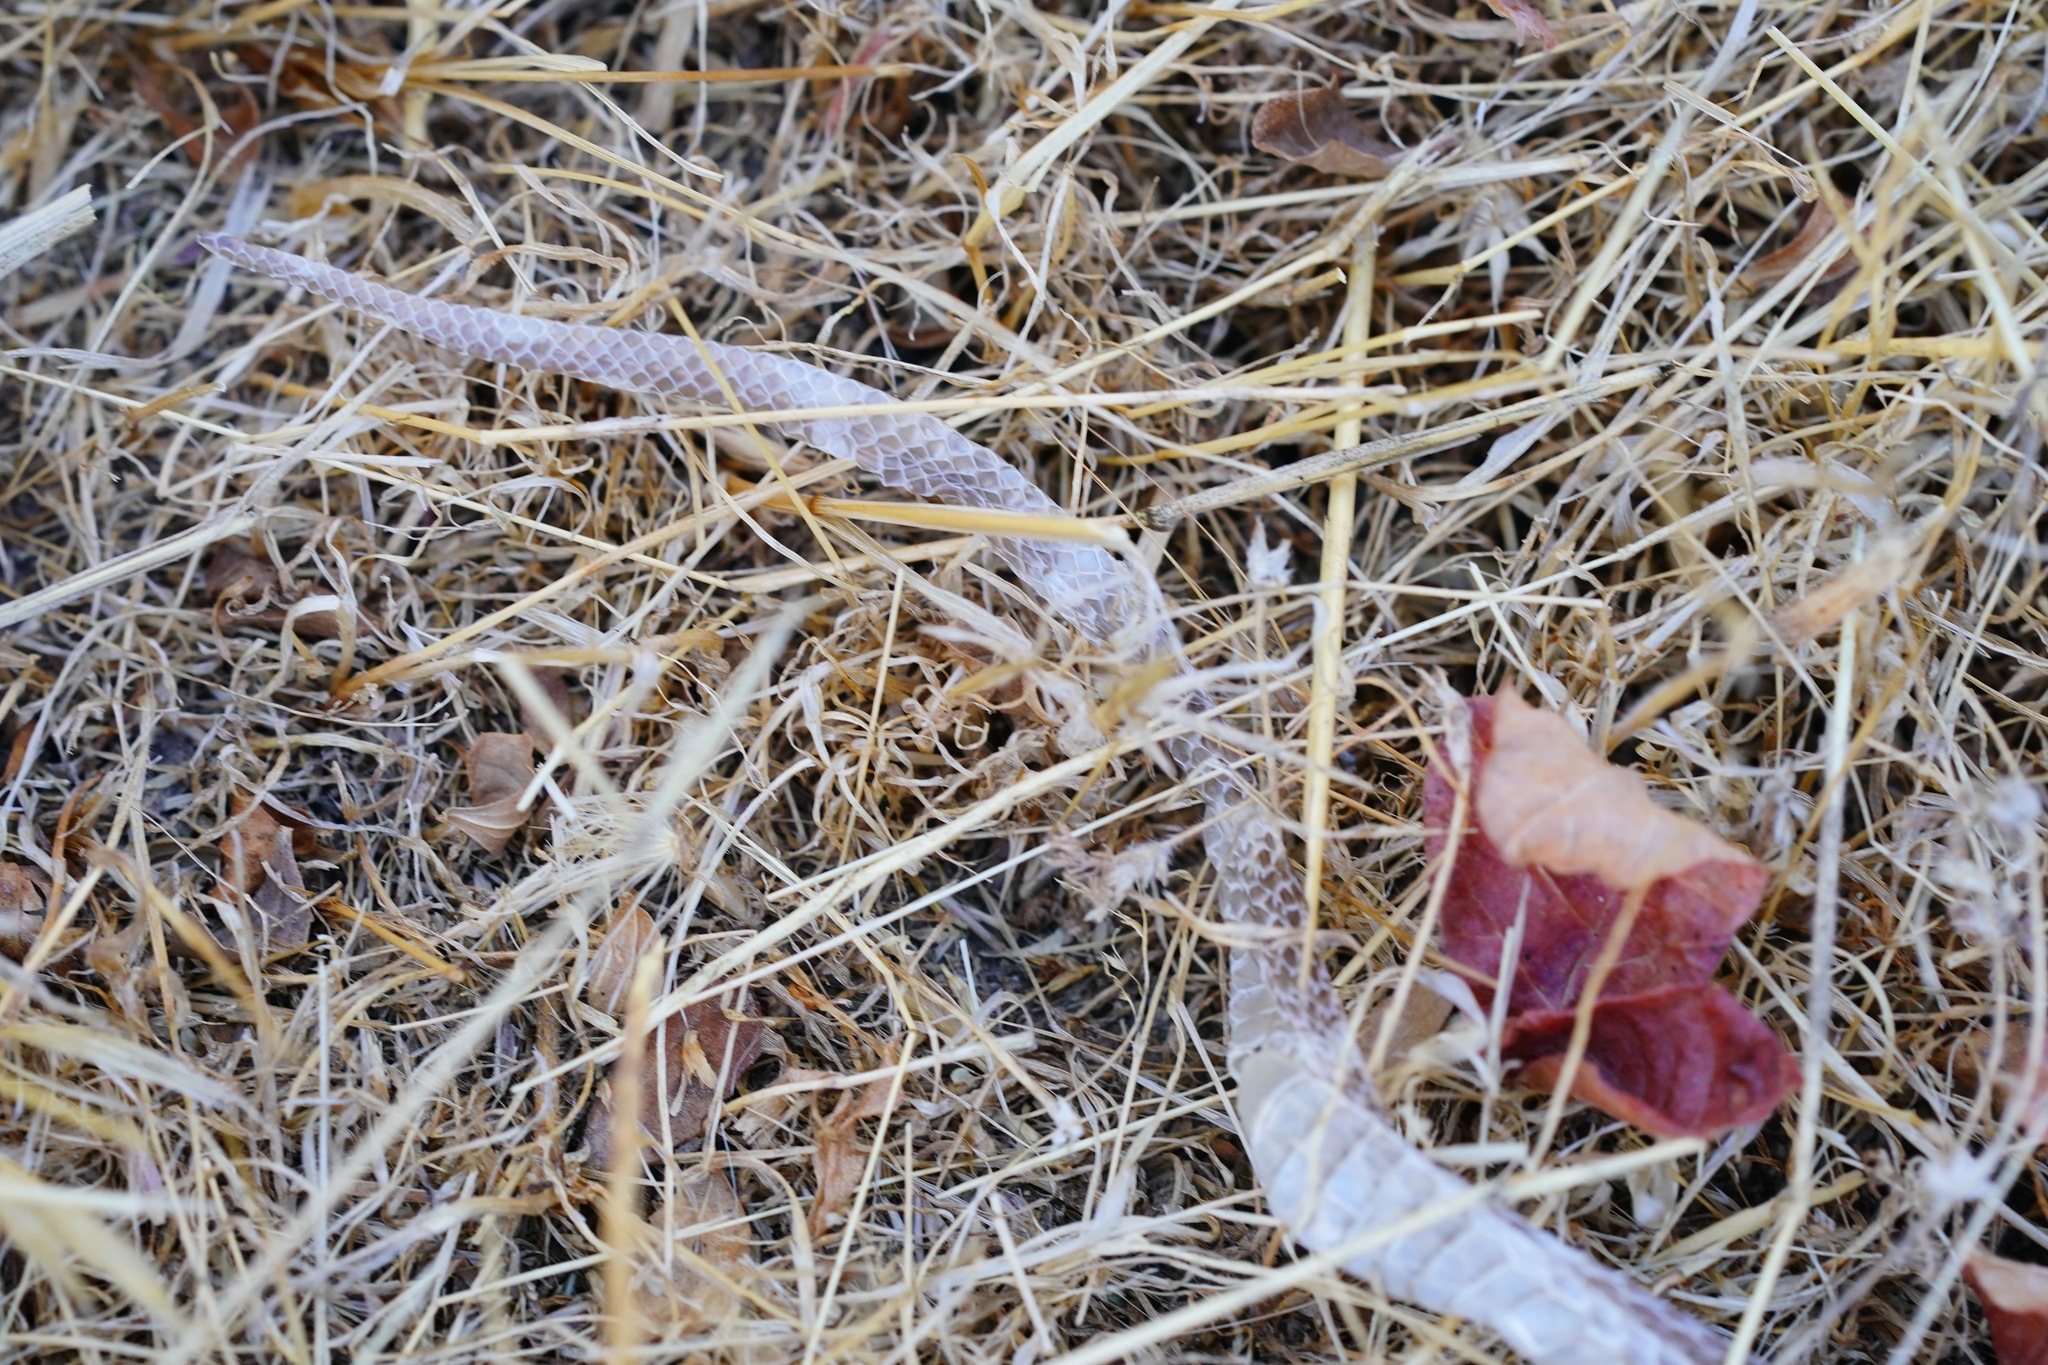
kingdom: Animalia
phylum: Chordata
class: Squamata
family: Colubridae
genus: Lampropeltis
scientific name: Lampropeltis californiae
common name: California kingsnake
